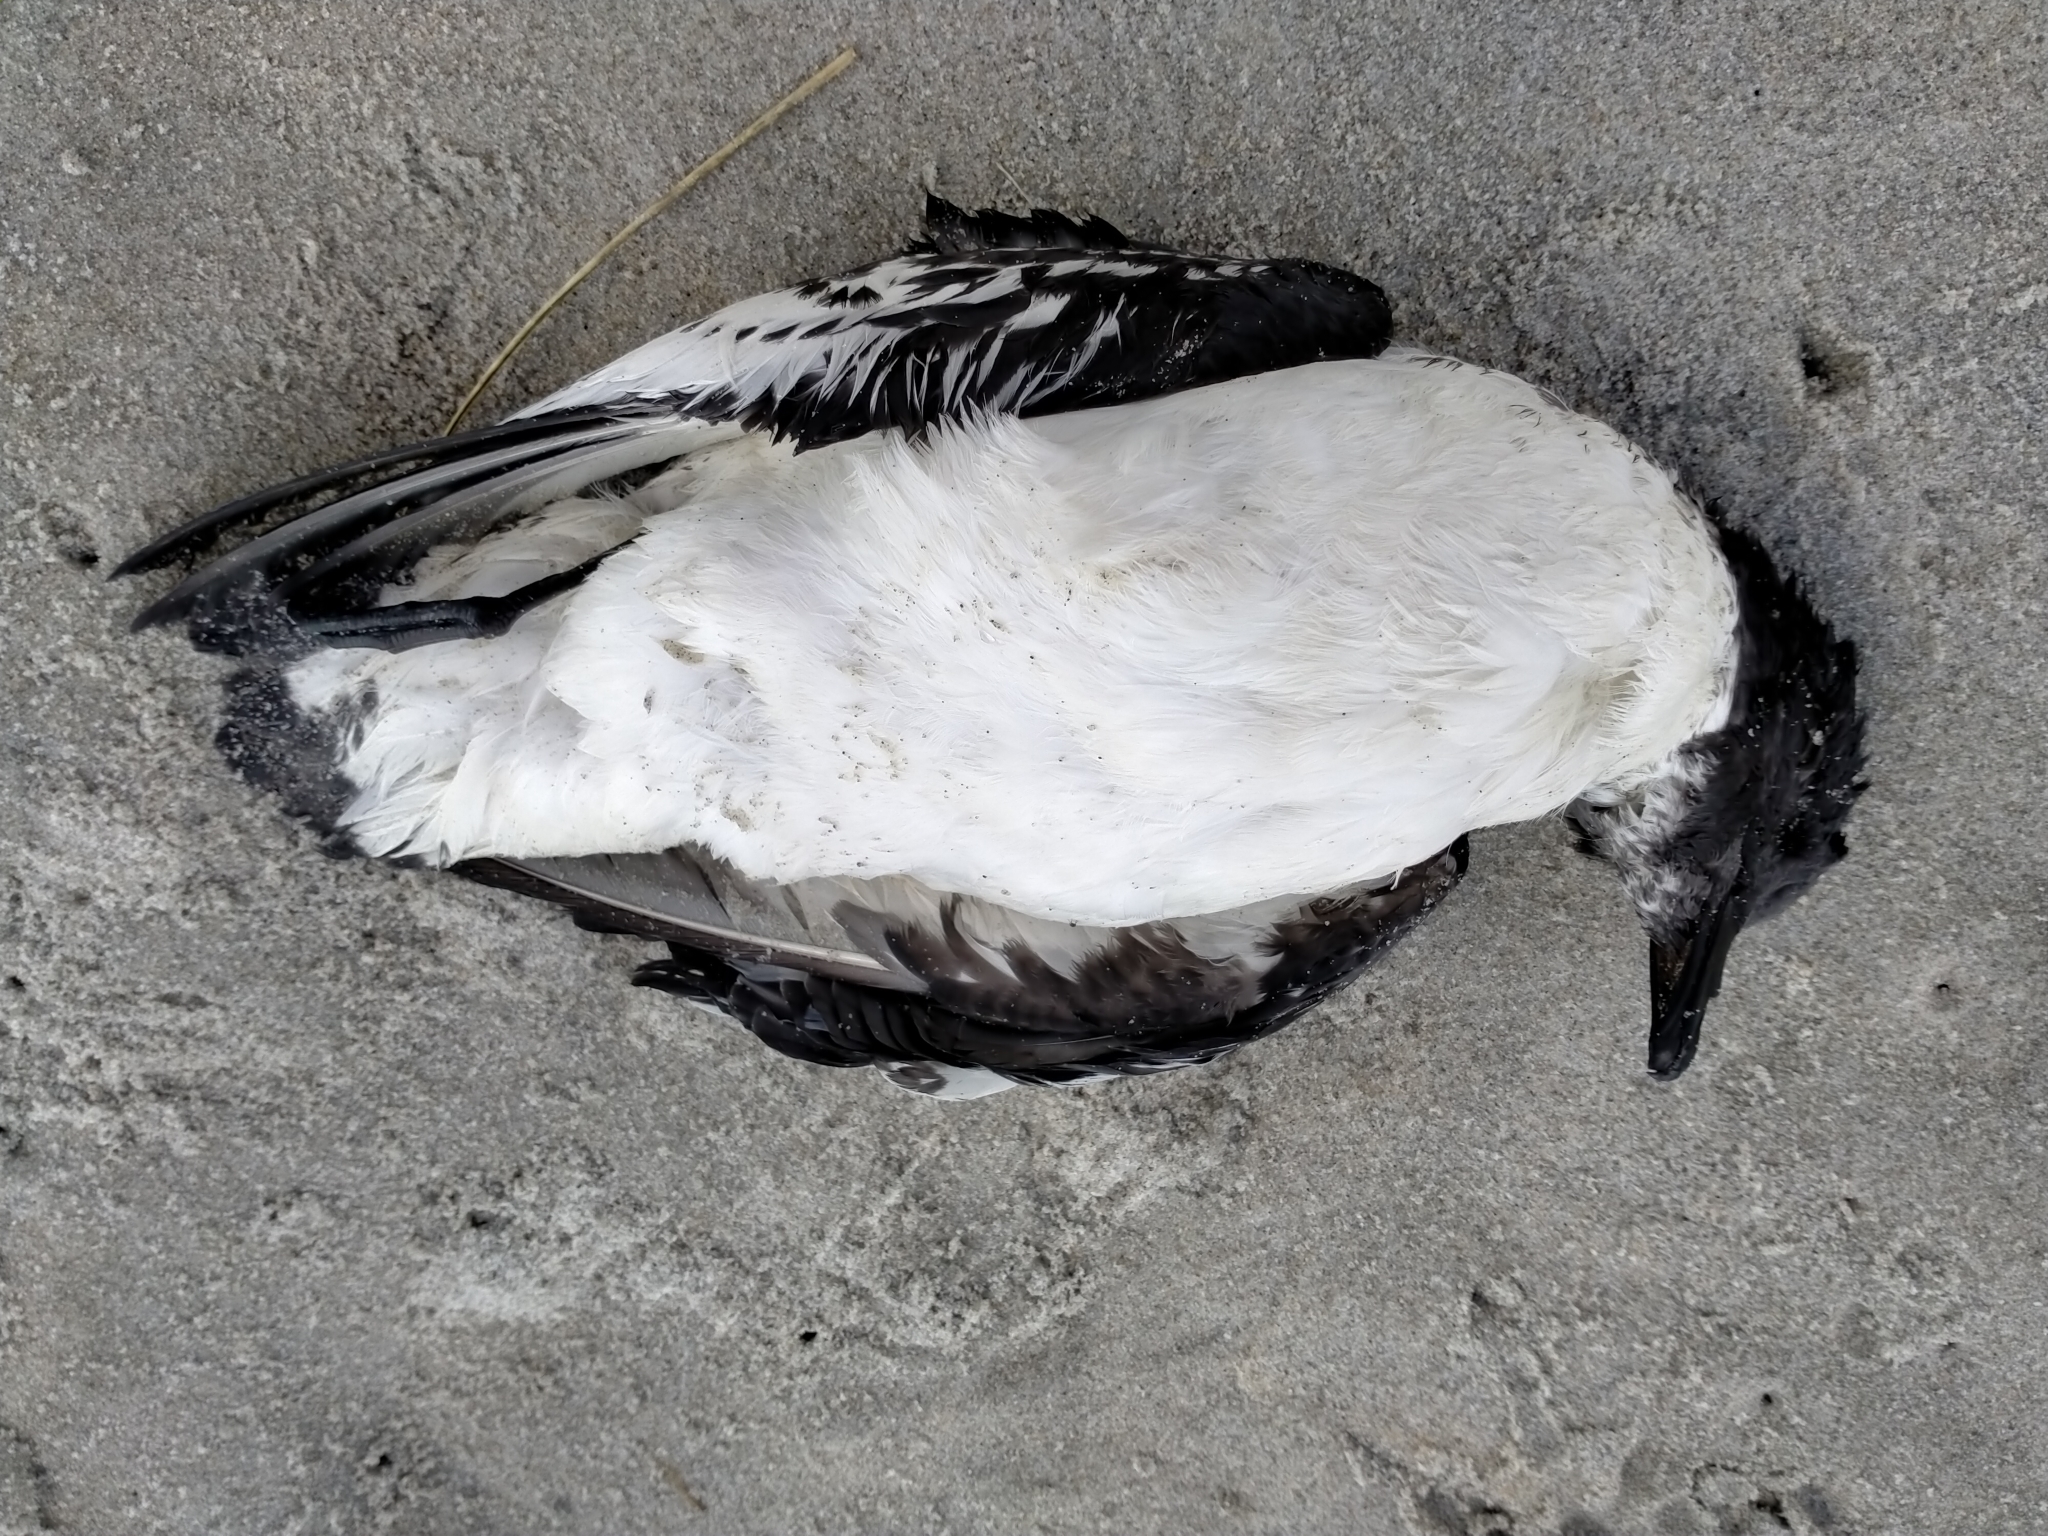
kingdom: Animalia
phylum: Chordata
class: Aves
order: Procellariiformes
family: Procellariidae
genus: Daption
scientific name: Daption capense
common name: Cape petrel
